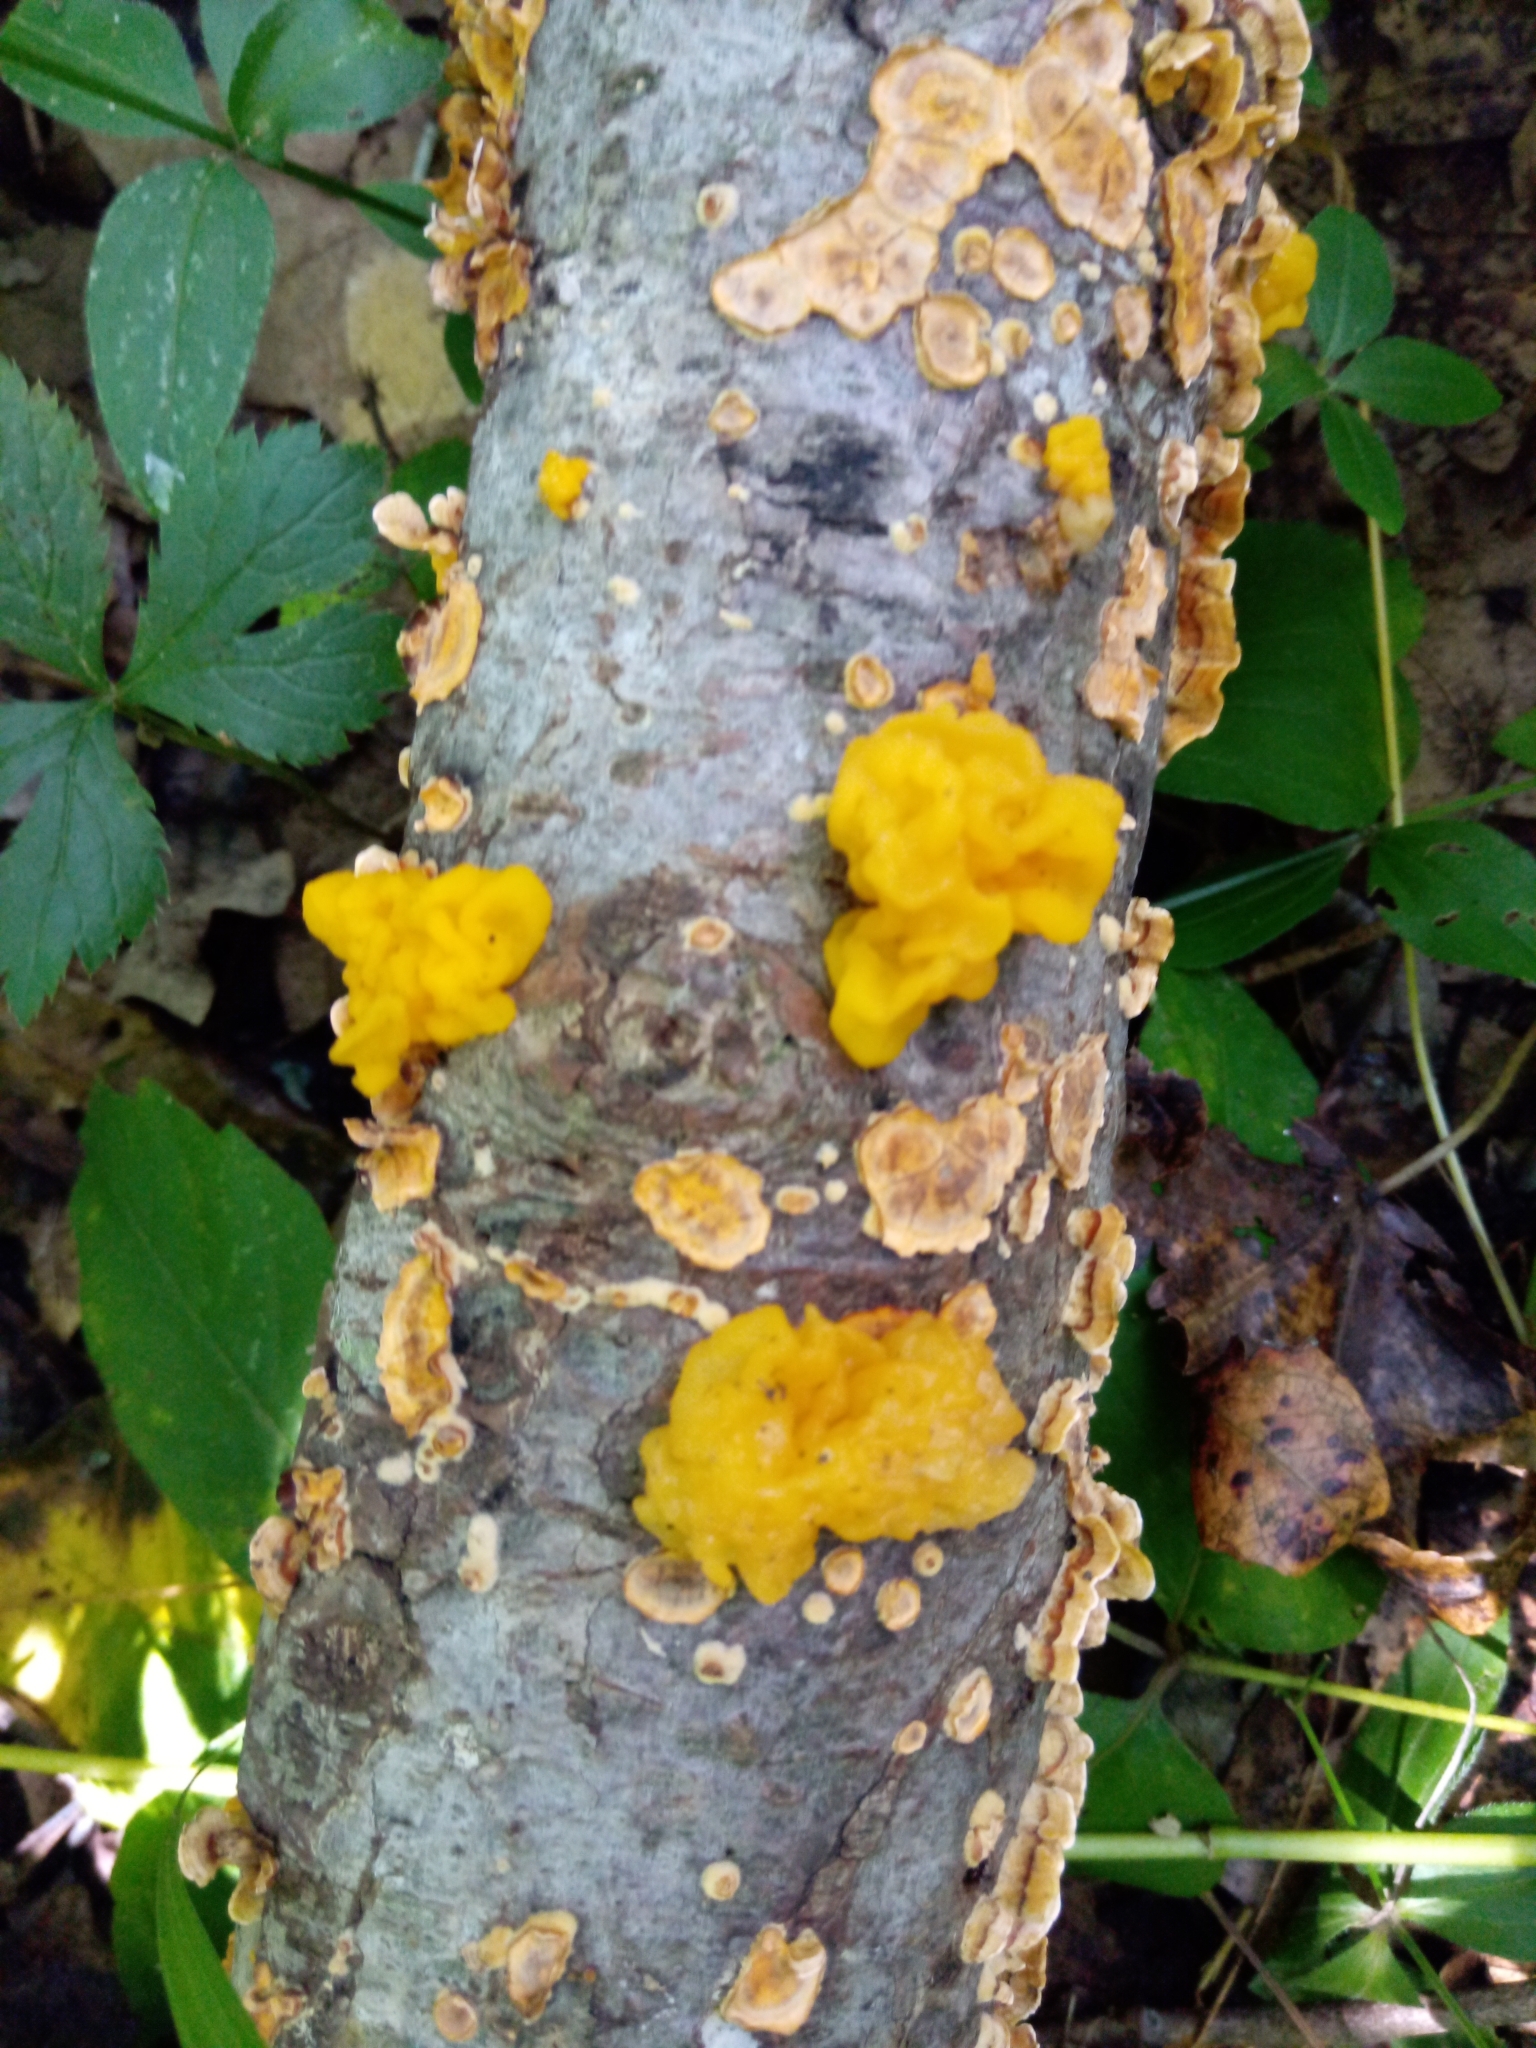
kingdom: Fungi
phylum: Basidiomycota
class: Tremellomycetes
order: Tremellales
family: Naemateliaceae
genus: Naematelia
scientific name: Naematelia aurantia
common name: Golden ear
